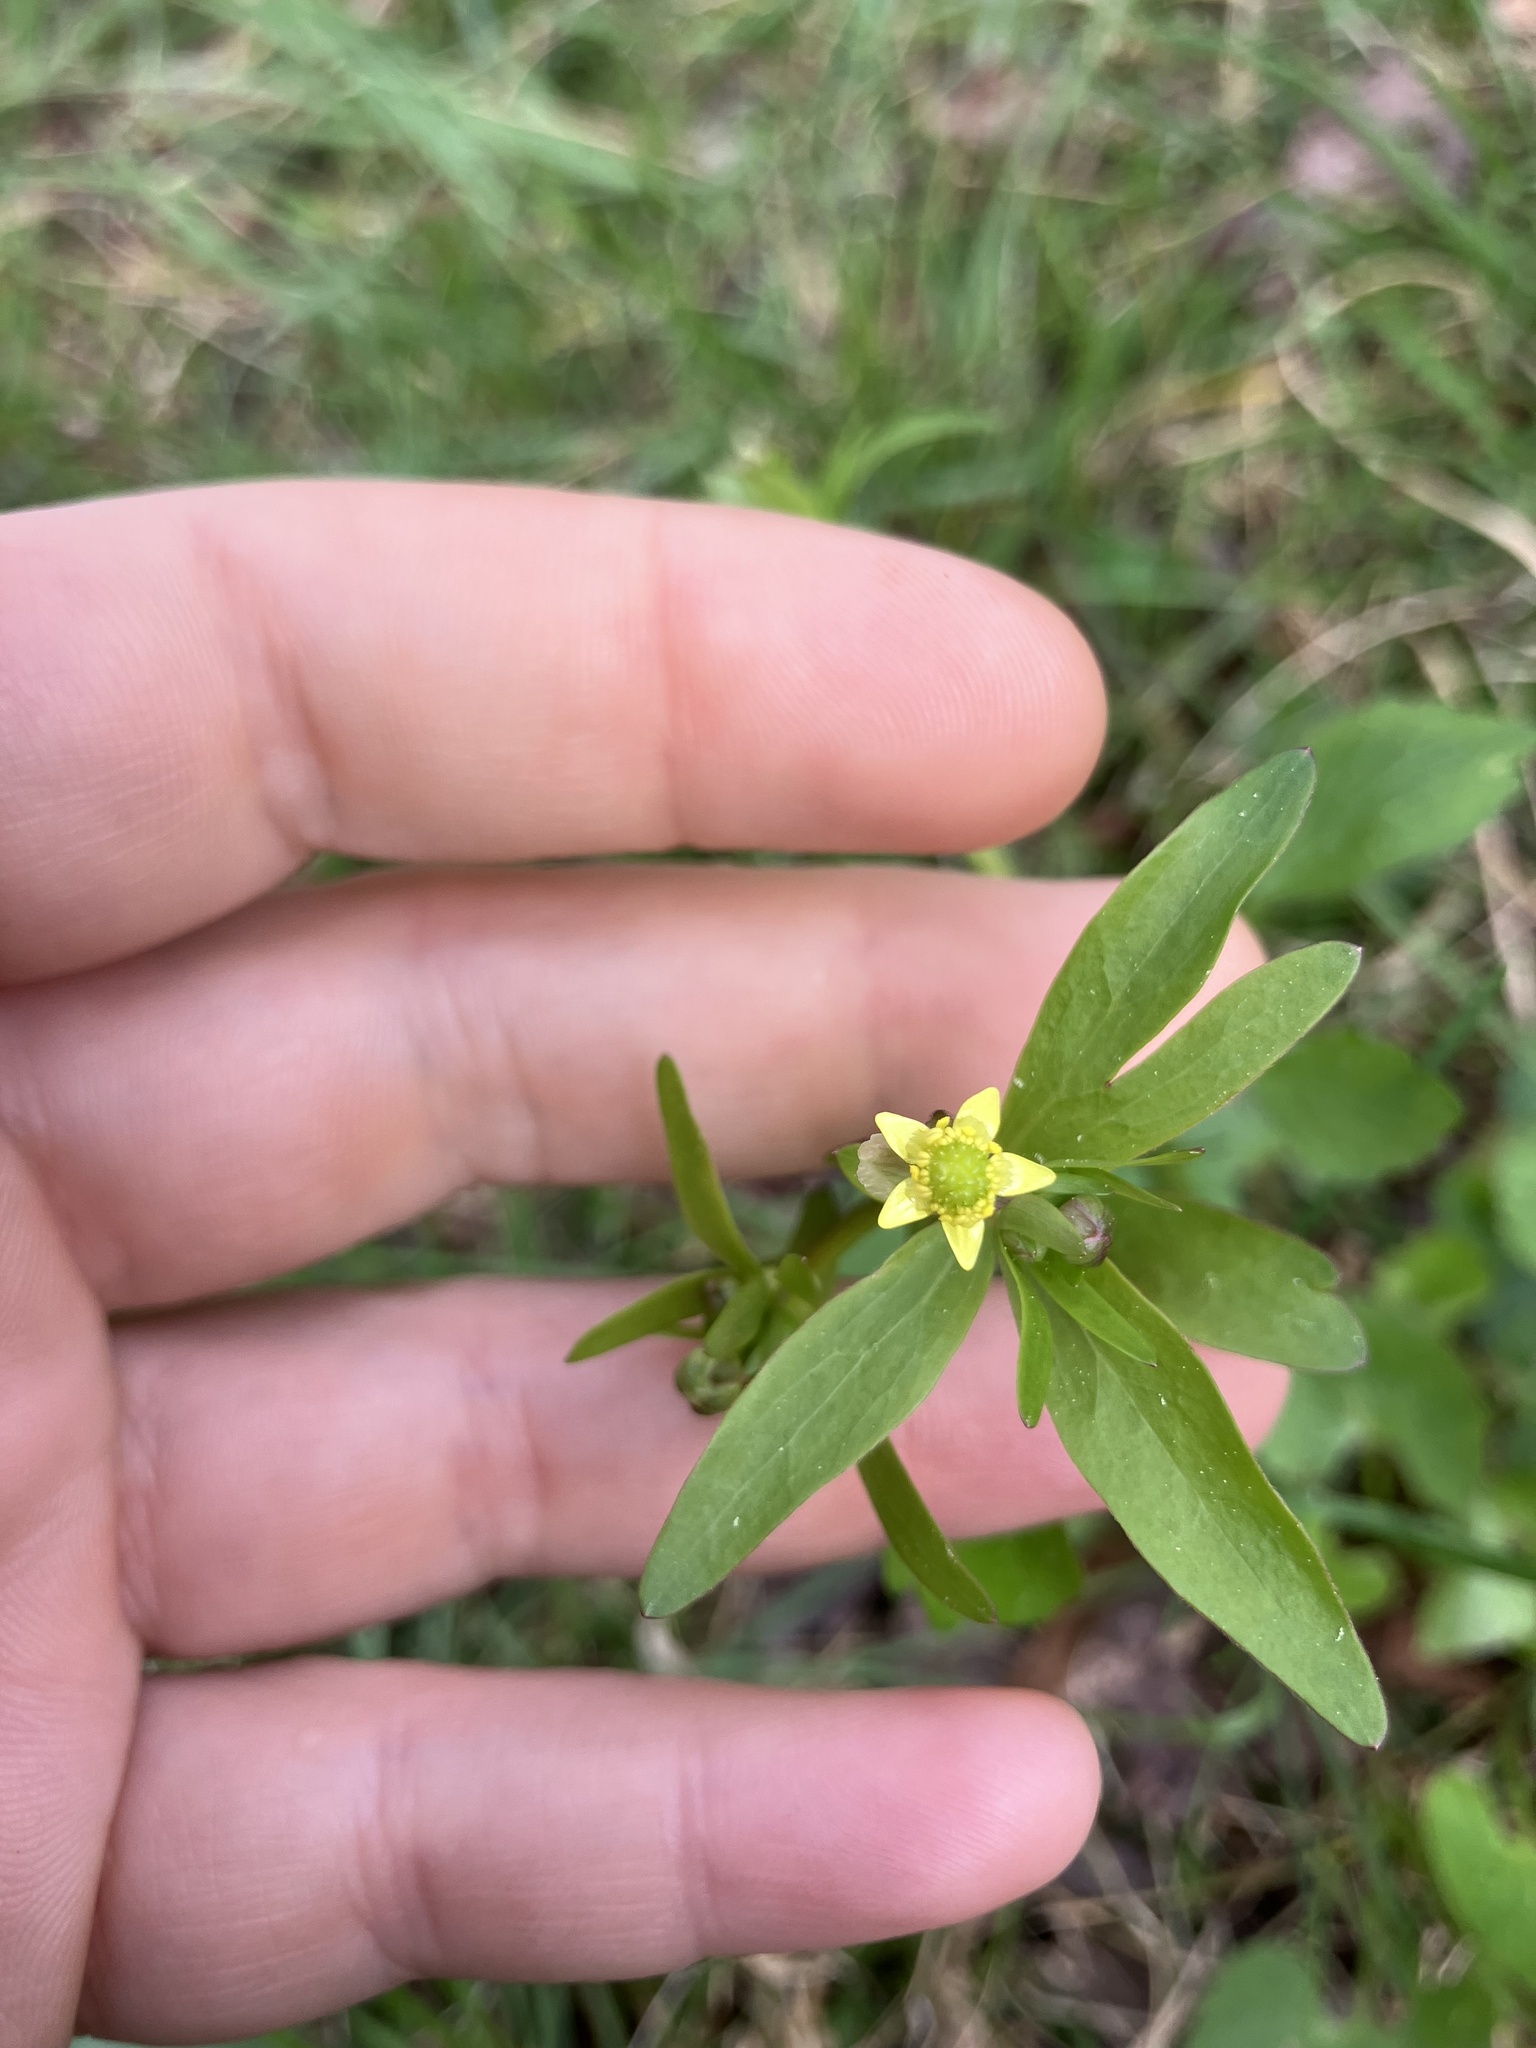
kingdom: Plantae
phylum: Tracheophyta
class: Magnoliopsida
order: Ranunculales
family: Ranunculaceae
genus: Ranunculus
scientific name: Ranunculus abortivus
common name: Early wood buttercup
